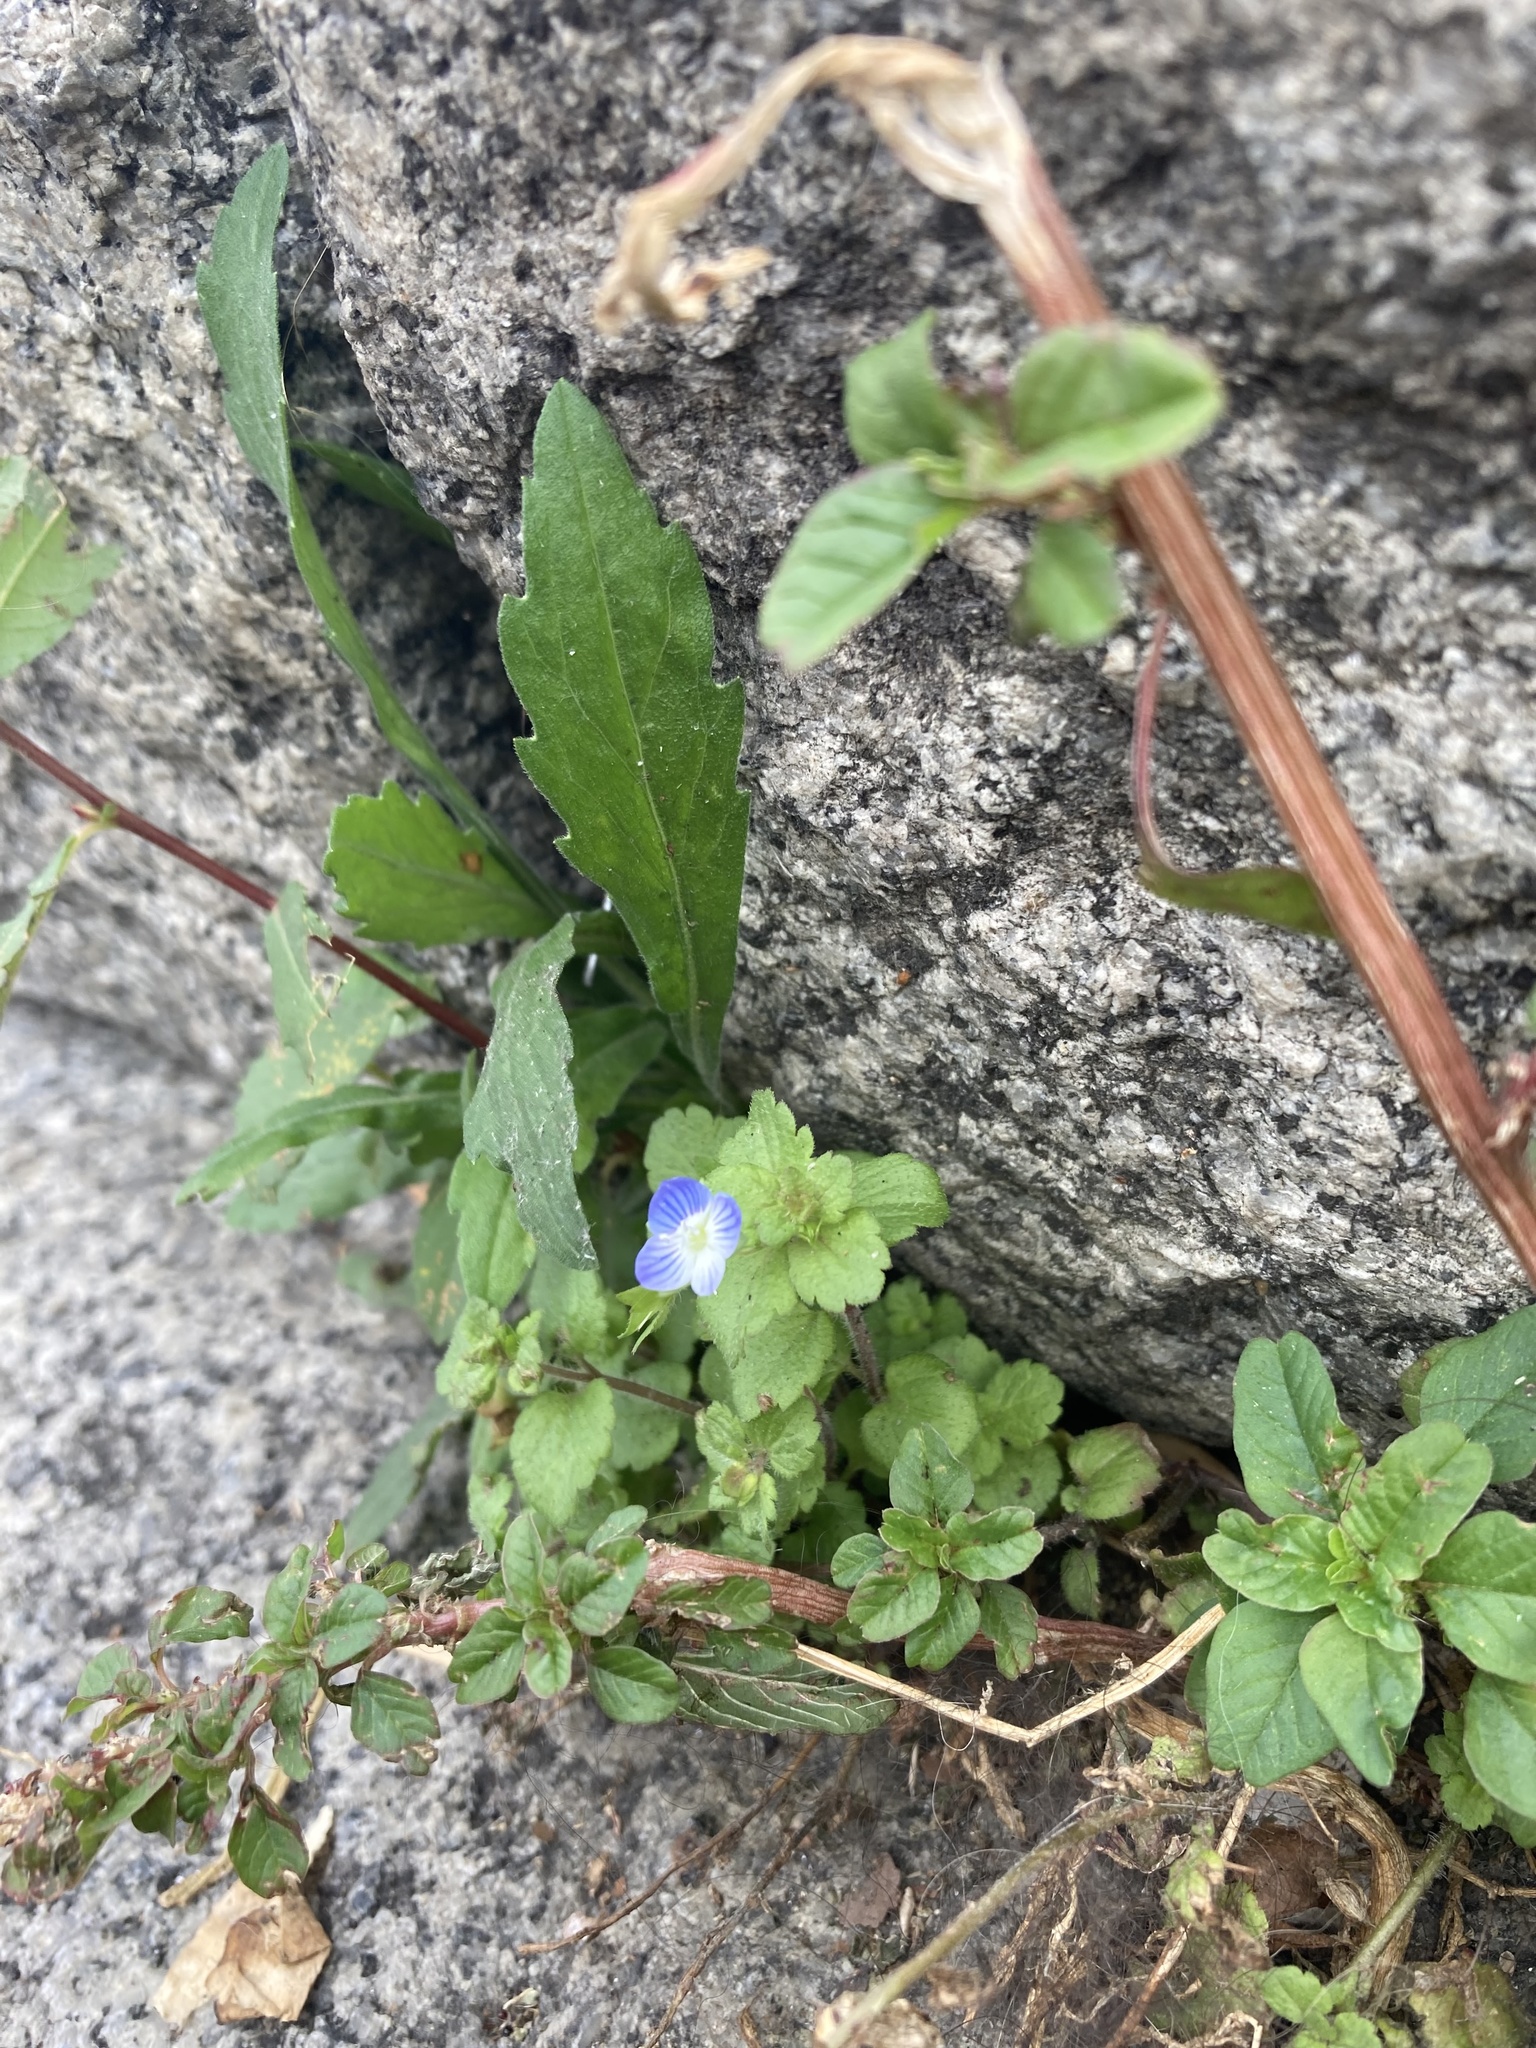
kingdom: Plantae
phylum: Tracheophyta
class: Magnoliopsida
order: Lamiales
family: Plantaginaceae
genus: Veronica
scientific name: Veronica persica
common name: Common field-speedwell
